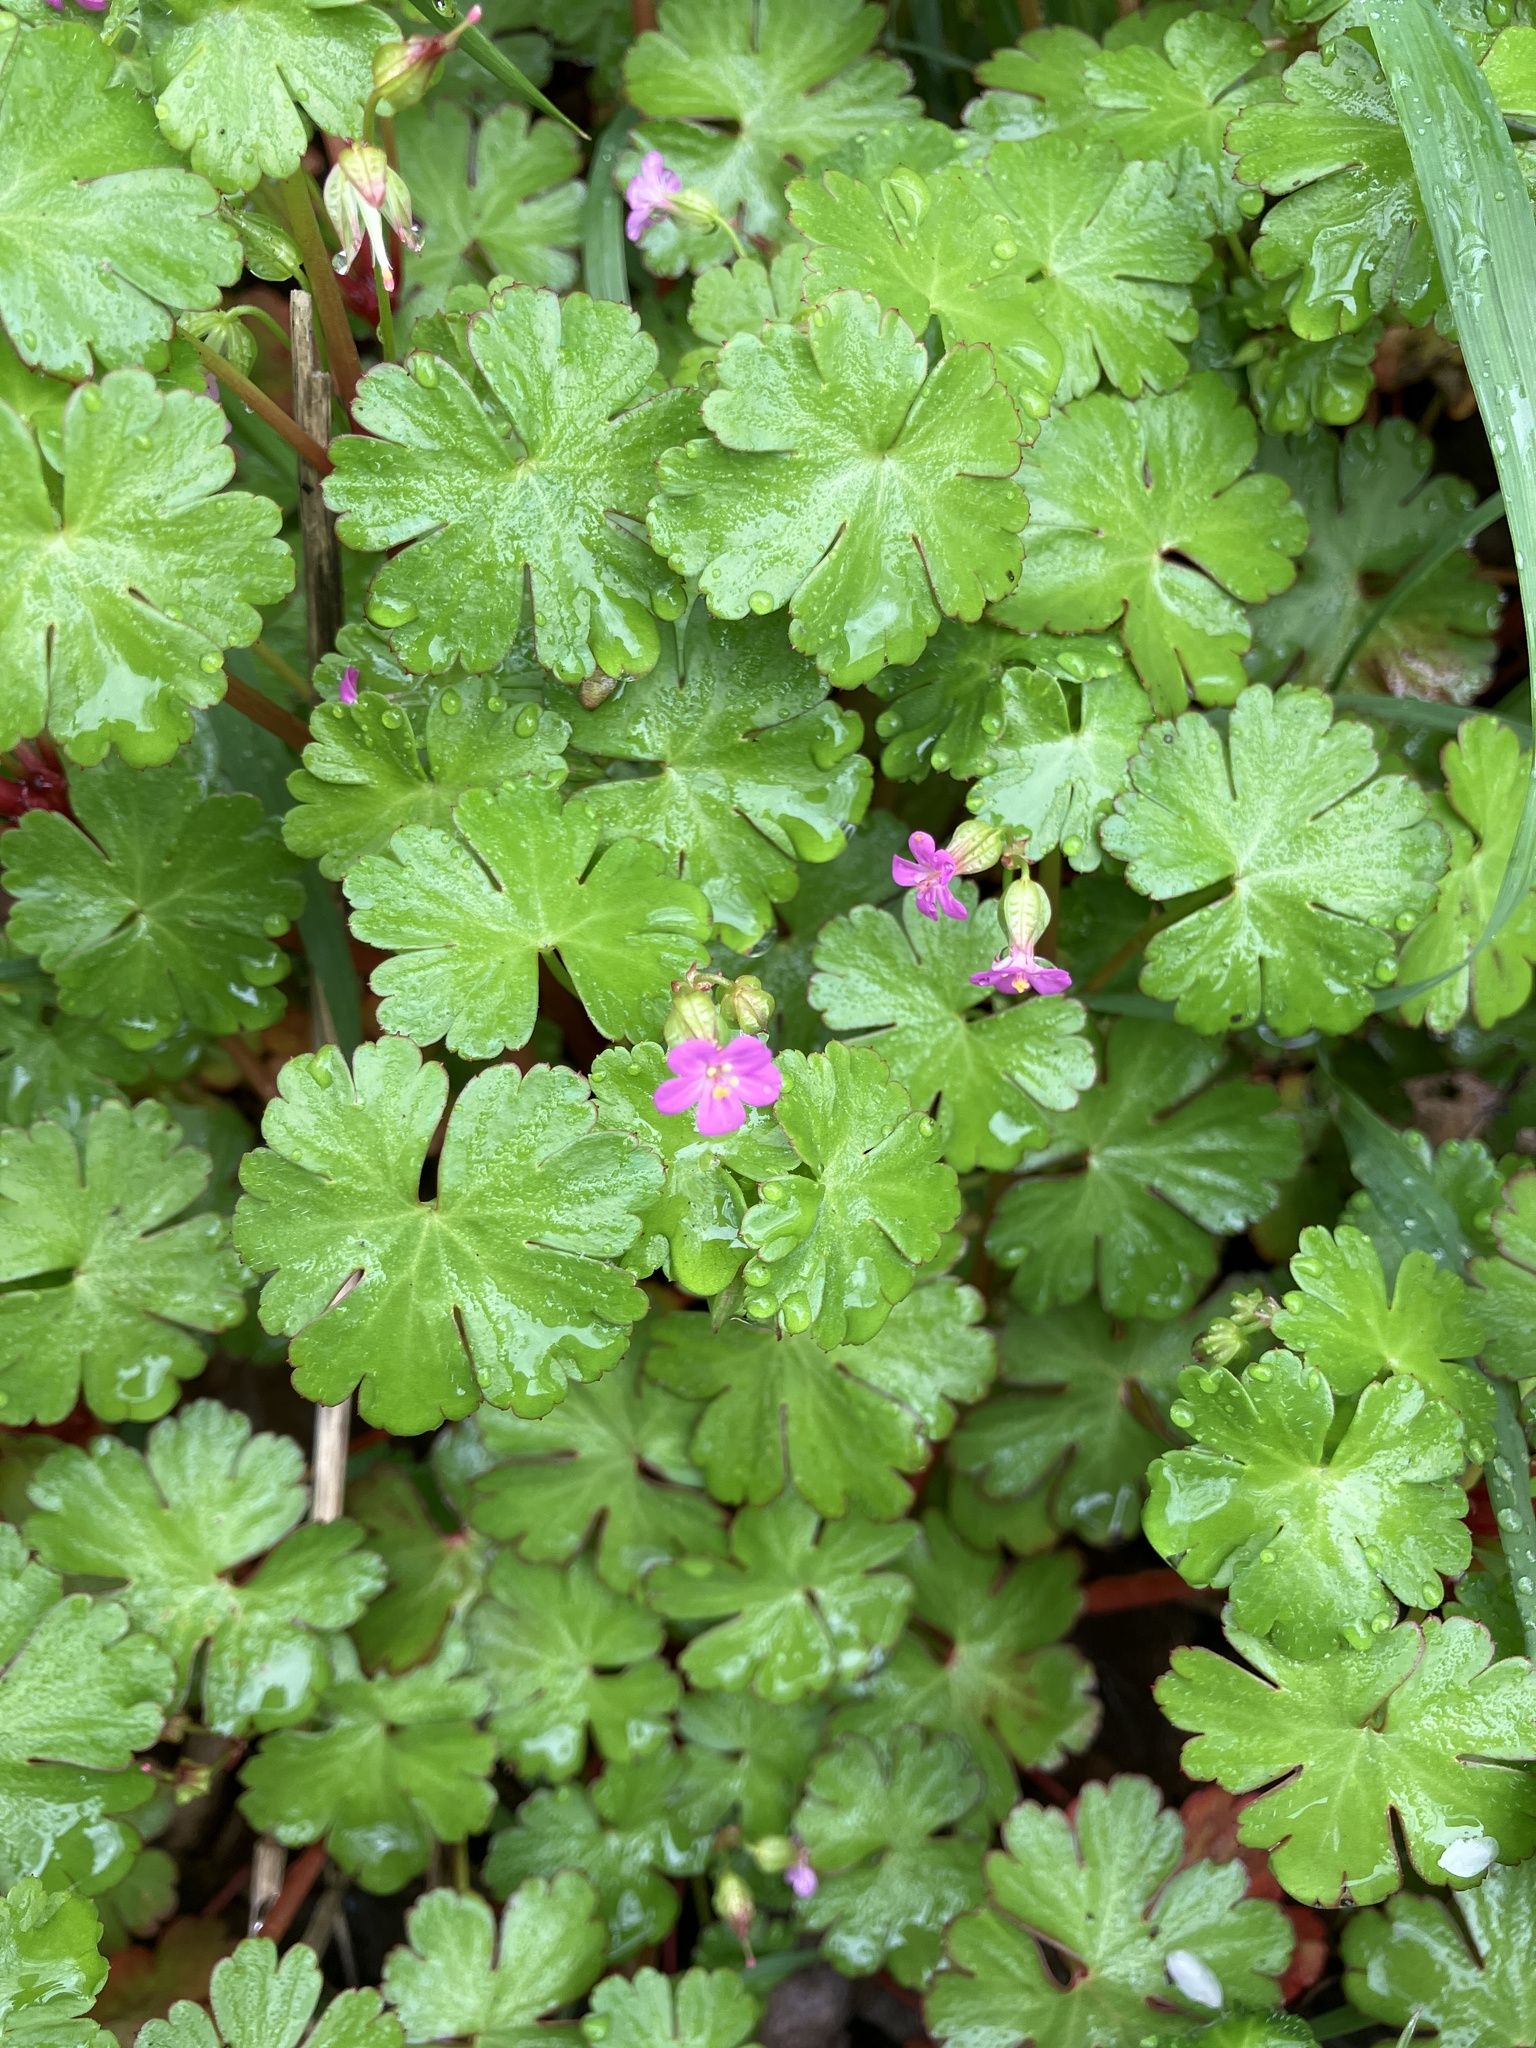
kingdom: Plantae
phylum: Tracheophyta
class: Magnoliopsida
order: Geraniales
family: Geraniaceae
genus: Geranium
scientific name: Geranium lucidum
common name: Shining crane's-bill
